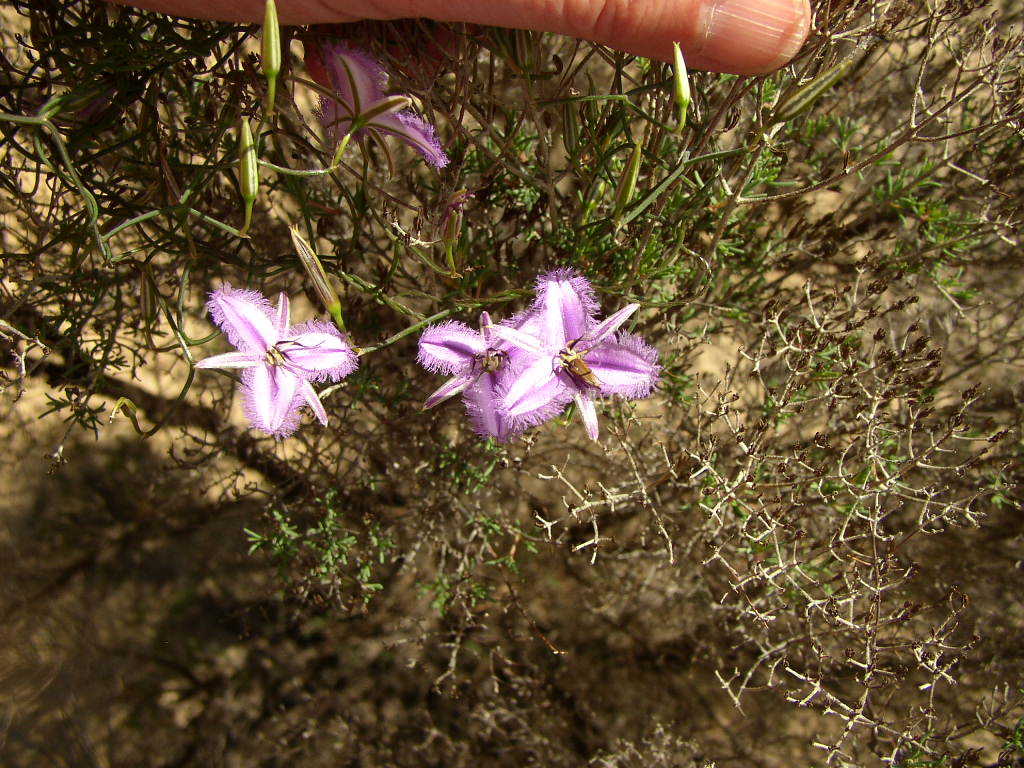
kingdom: Plantae
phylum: Tracheophyta
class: Liliopsida
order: Asparagales
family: Asparagaceae
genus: Thysanotus
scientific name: Thysanotus dichotomus
